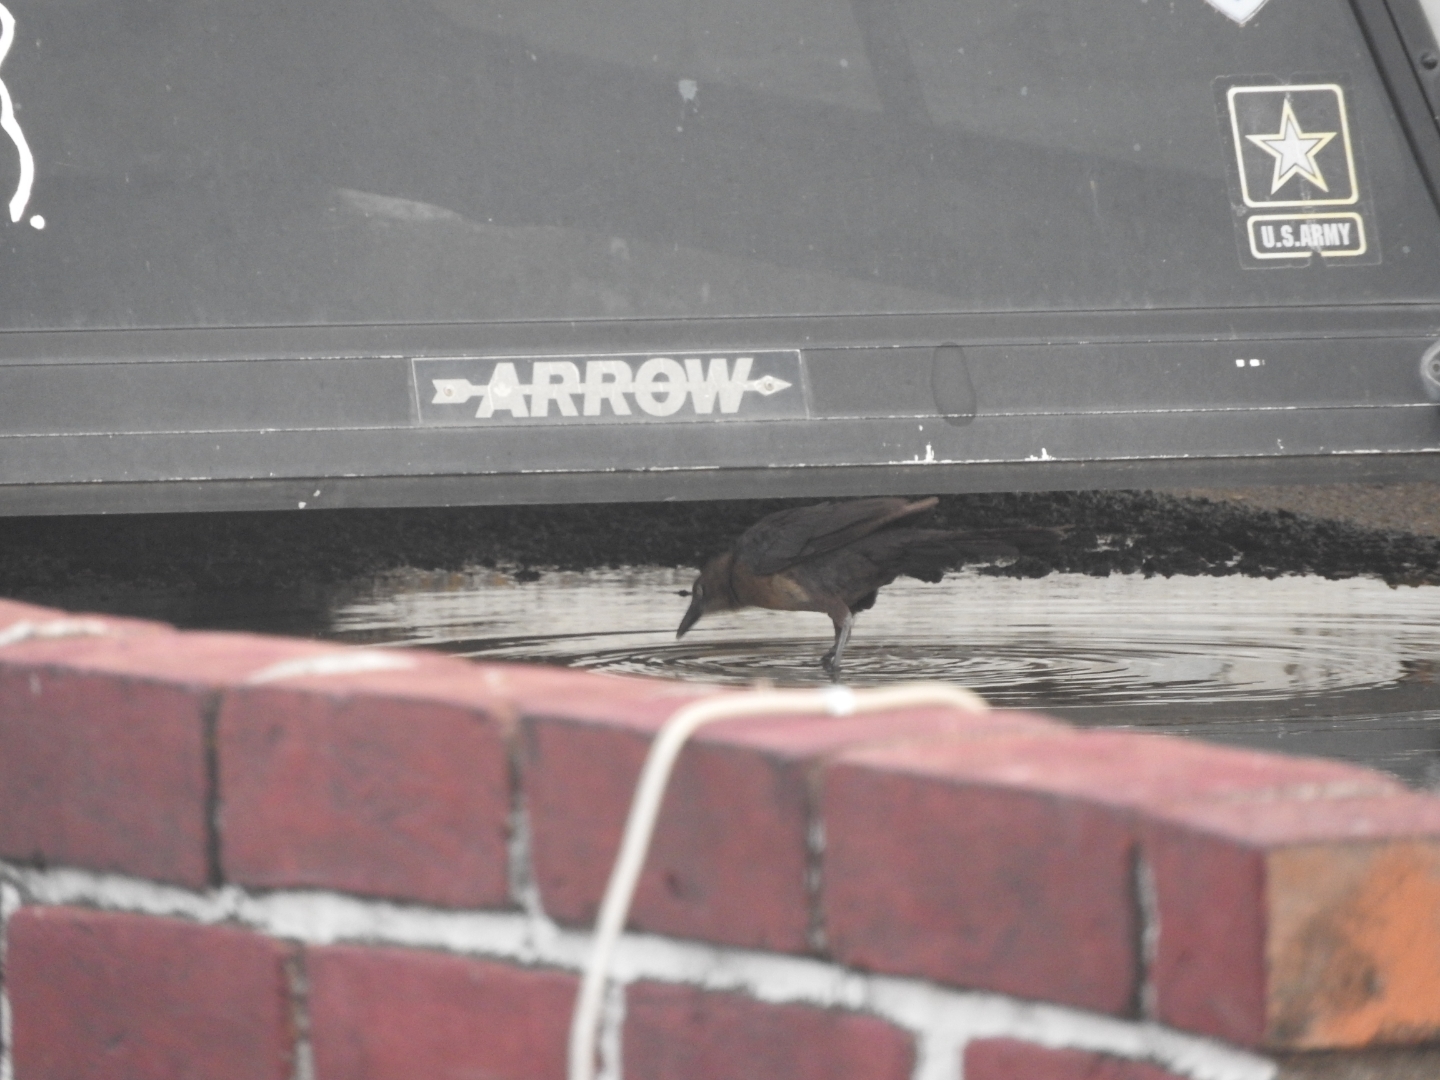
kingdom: Animalia
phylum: Chordata
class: Aves
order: Passeriformes
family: Icteridae
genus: Quiscalus
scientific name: Quiscalus mexicanus
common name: Great-tailed grackle
